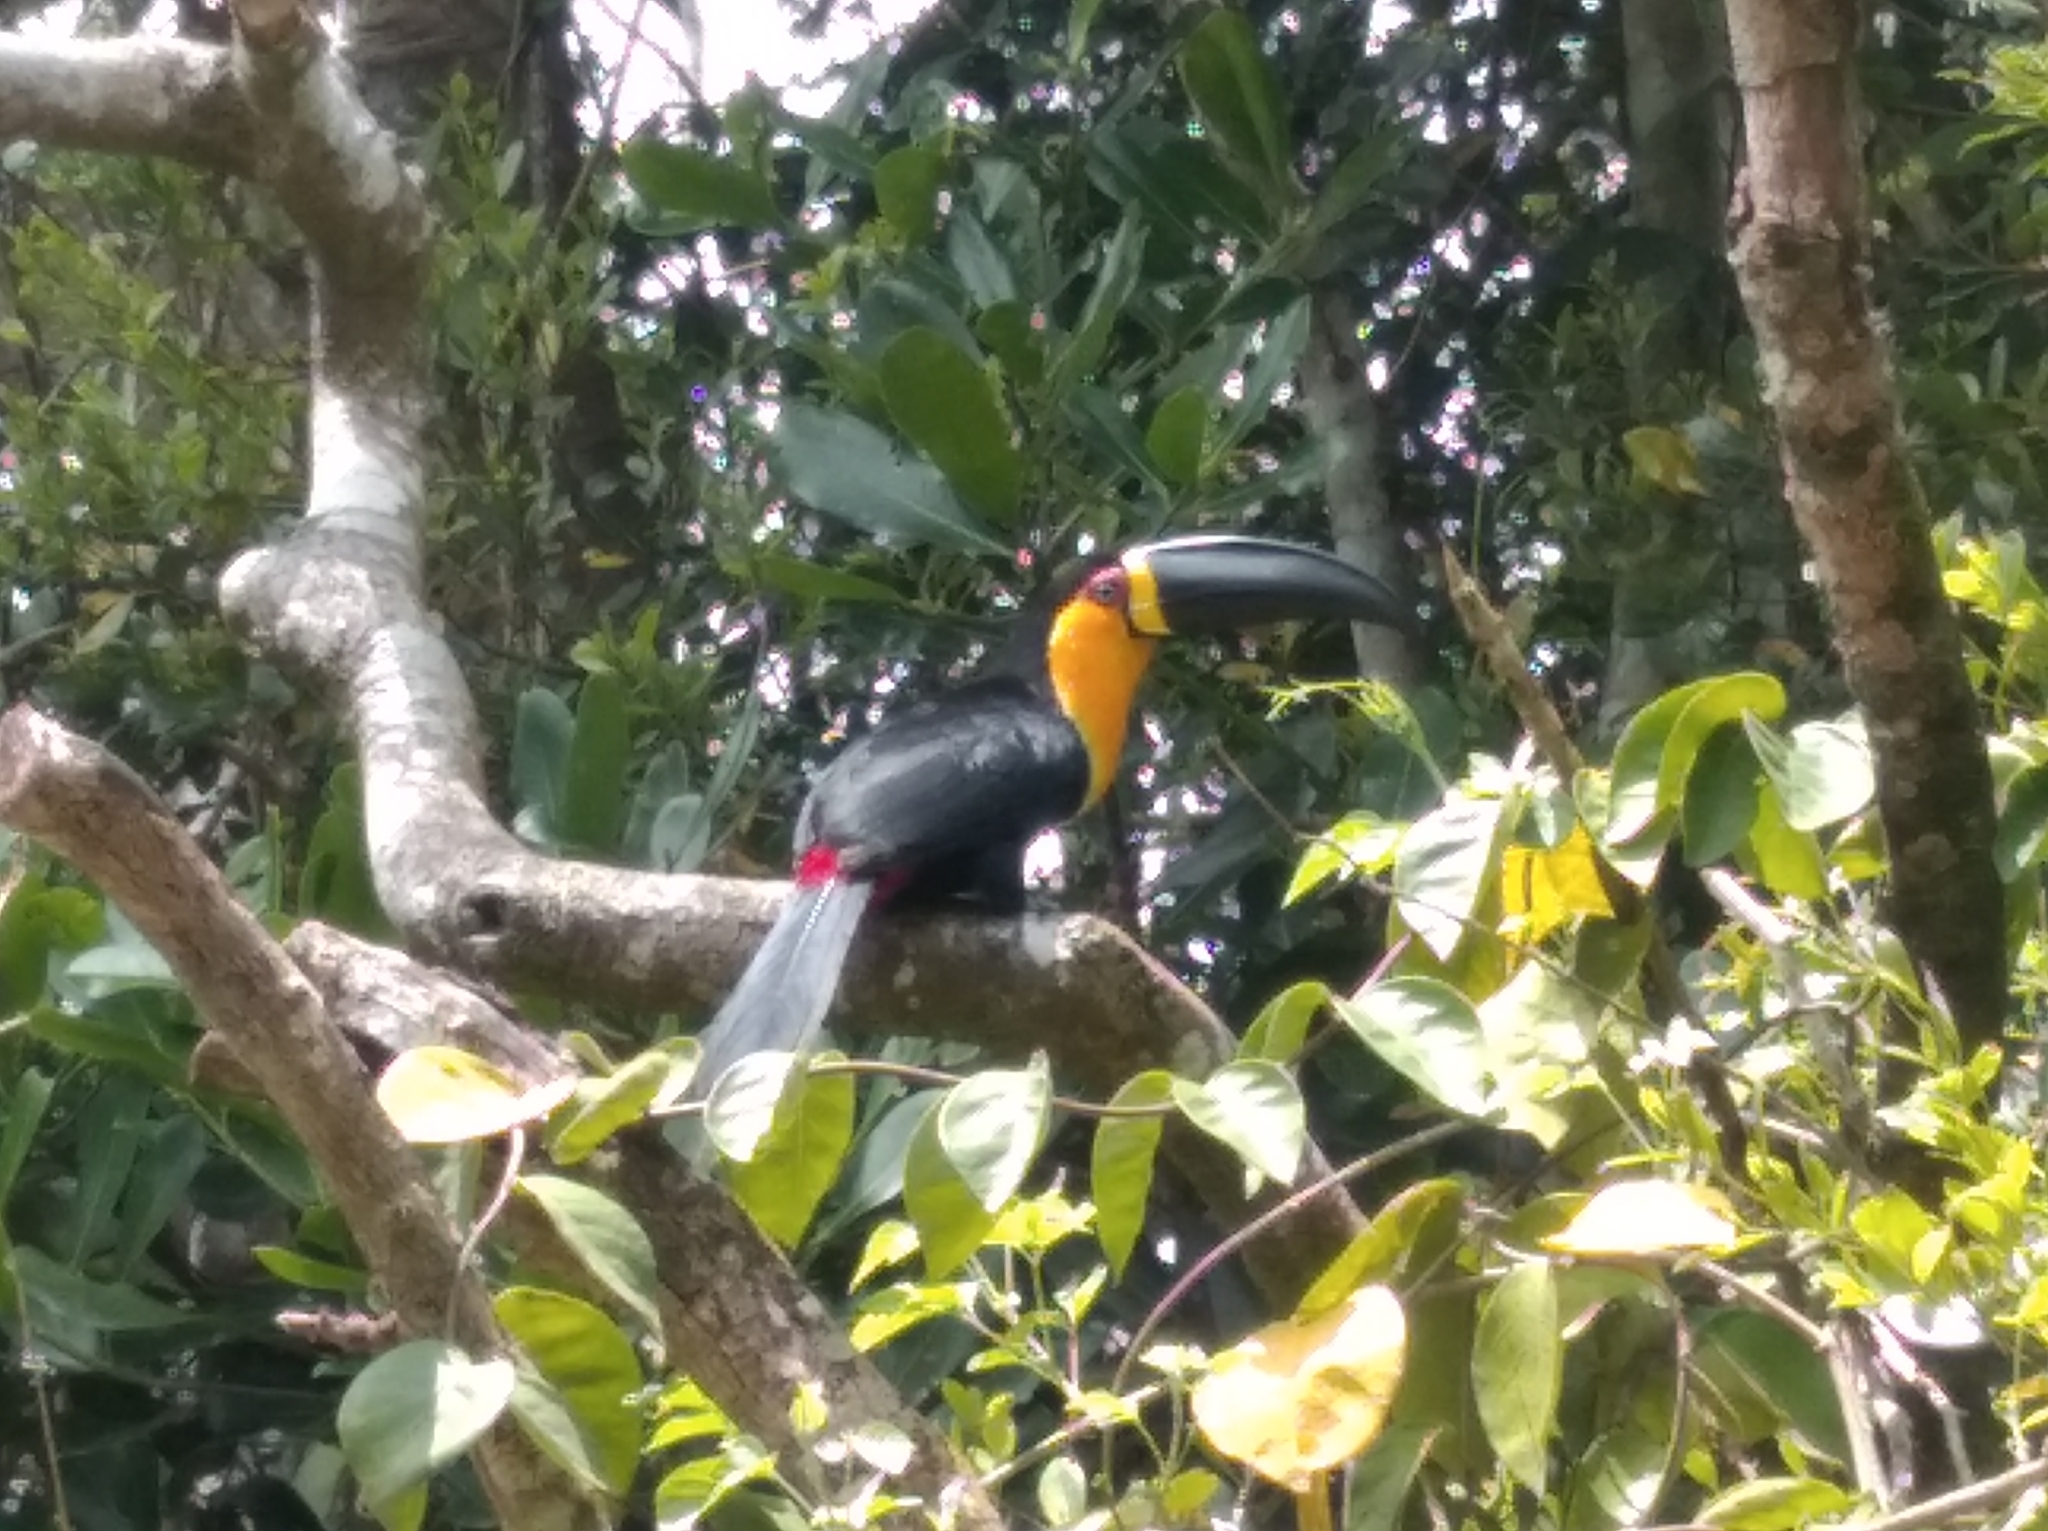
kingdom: Animalia
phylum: Chordata
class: Aves
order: Piciformes
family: Ramphastidae
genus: Ramphastos
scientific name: Ramphastos vitellinus
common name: Channel-billed toucan
